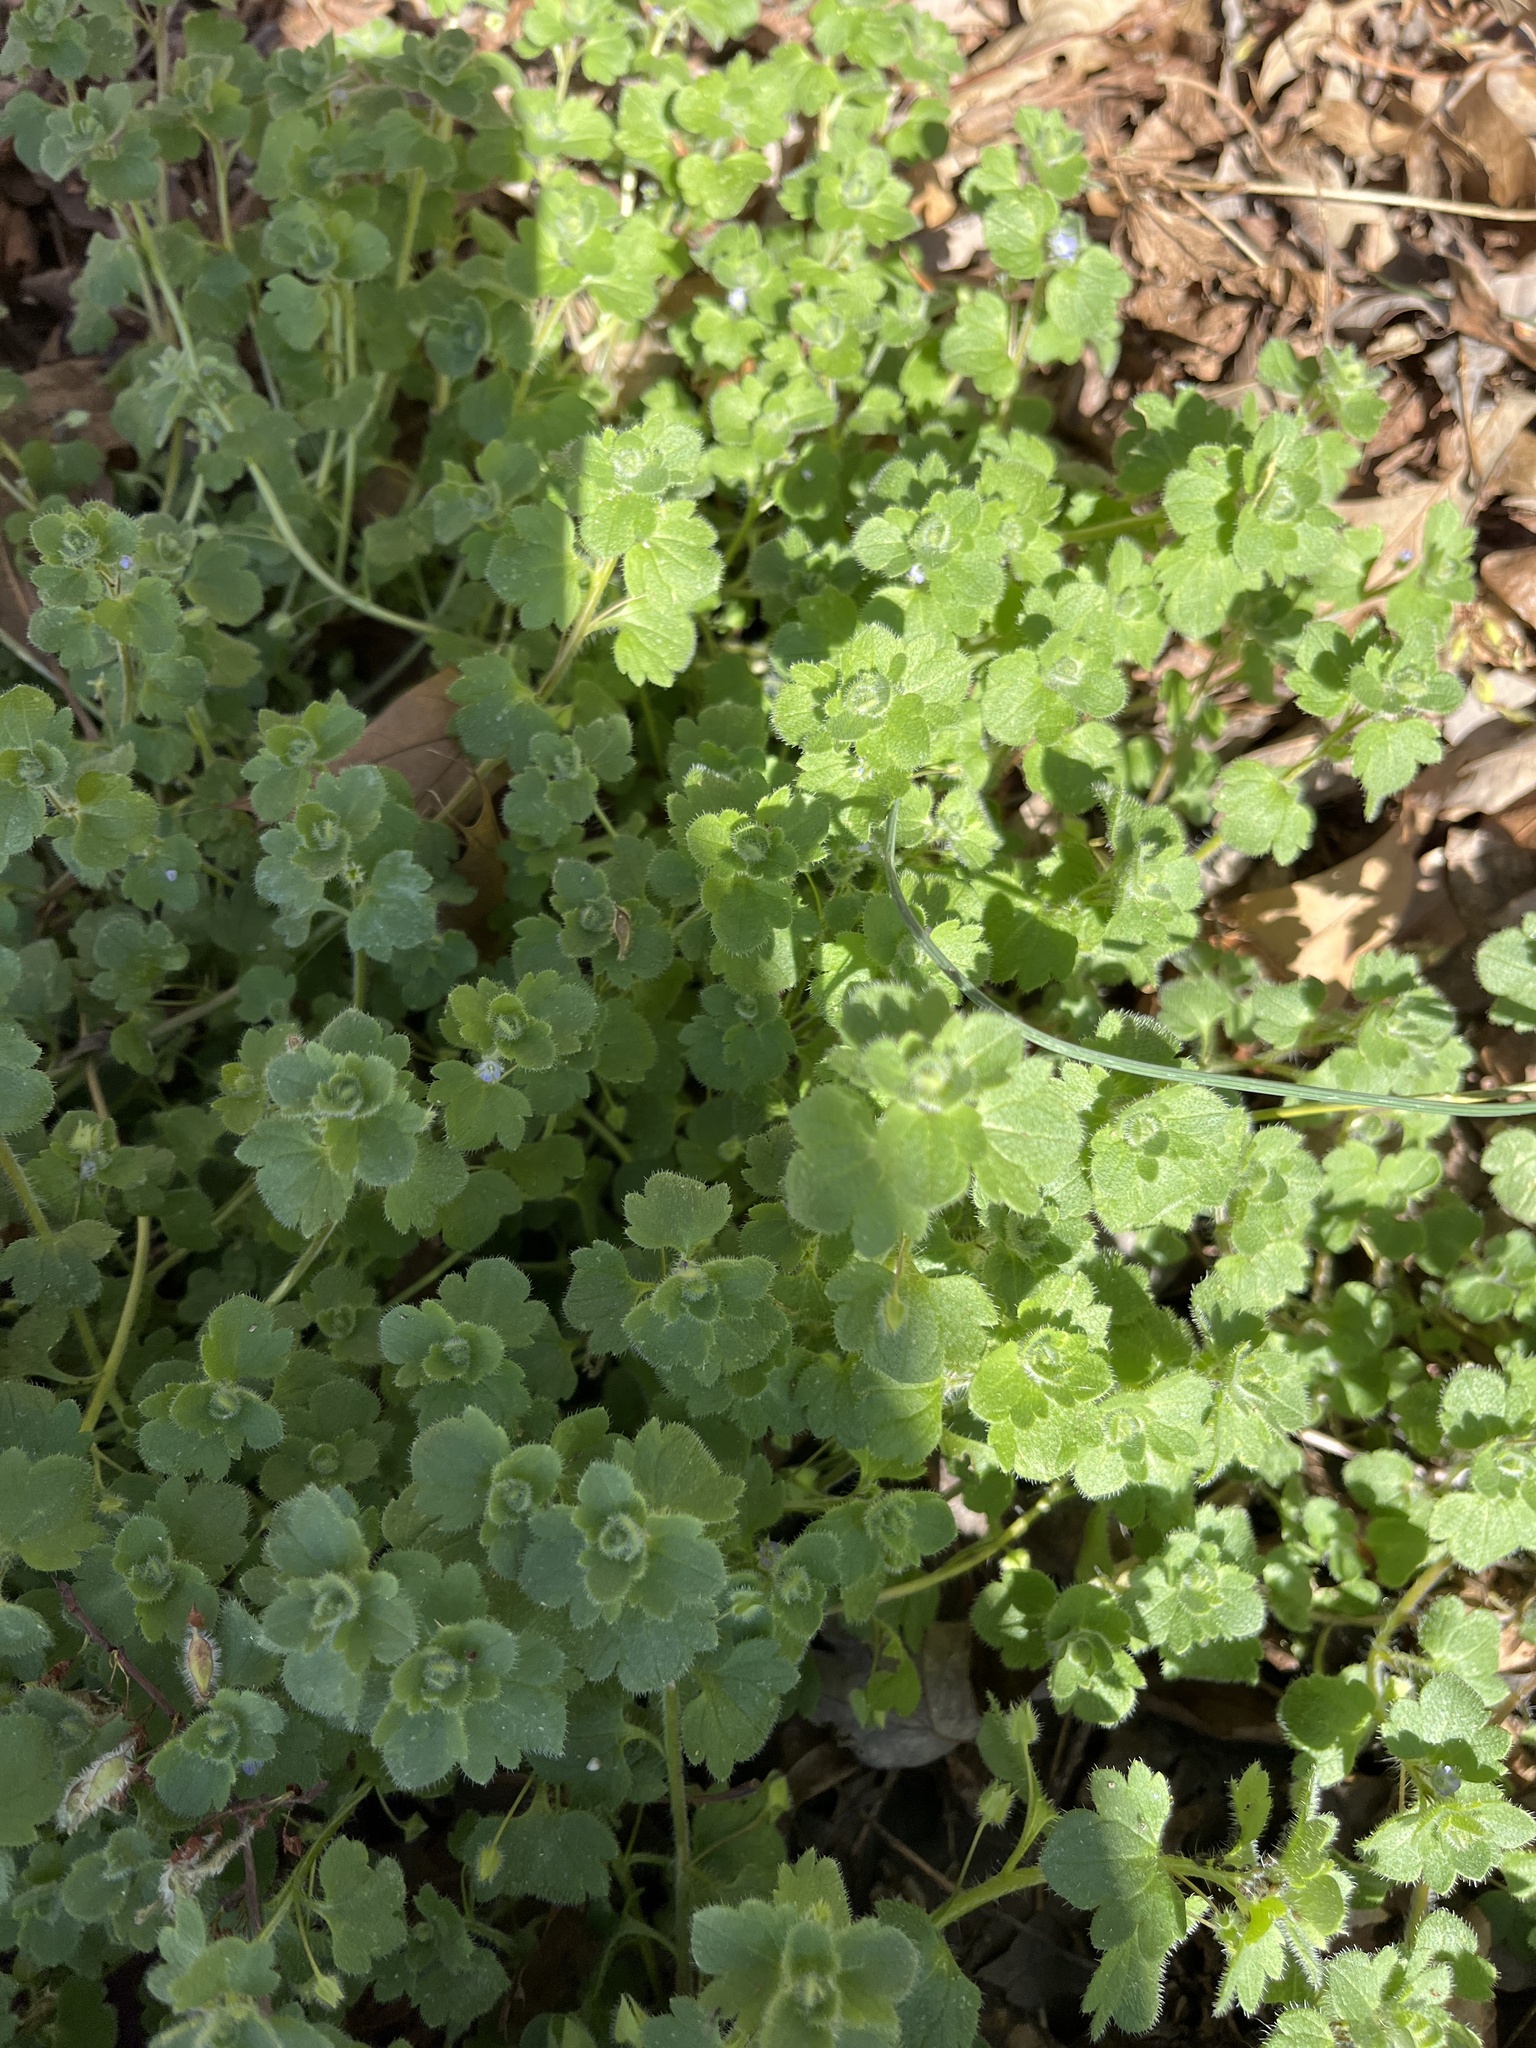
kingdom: Plantae
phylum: Tracheophyta
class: Magnoliopsida
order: Lamiales
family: Plantaginaceae
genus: Veronica
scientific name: Veronica hederifolia
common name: Ivy-leaved speedwell
